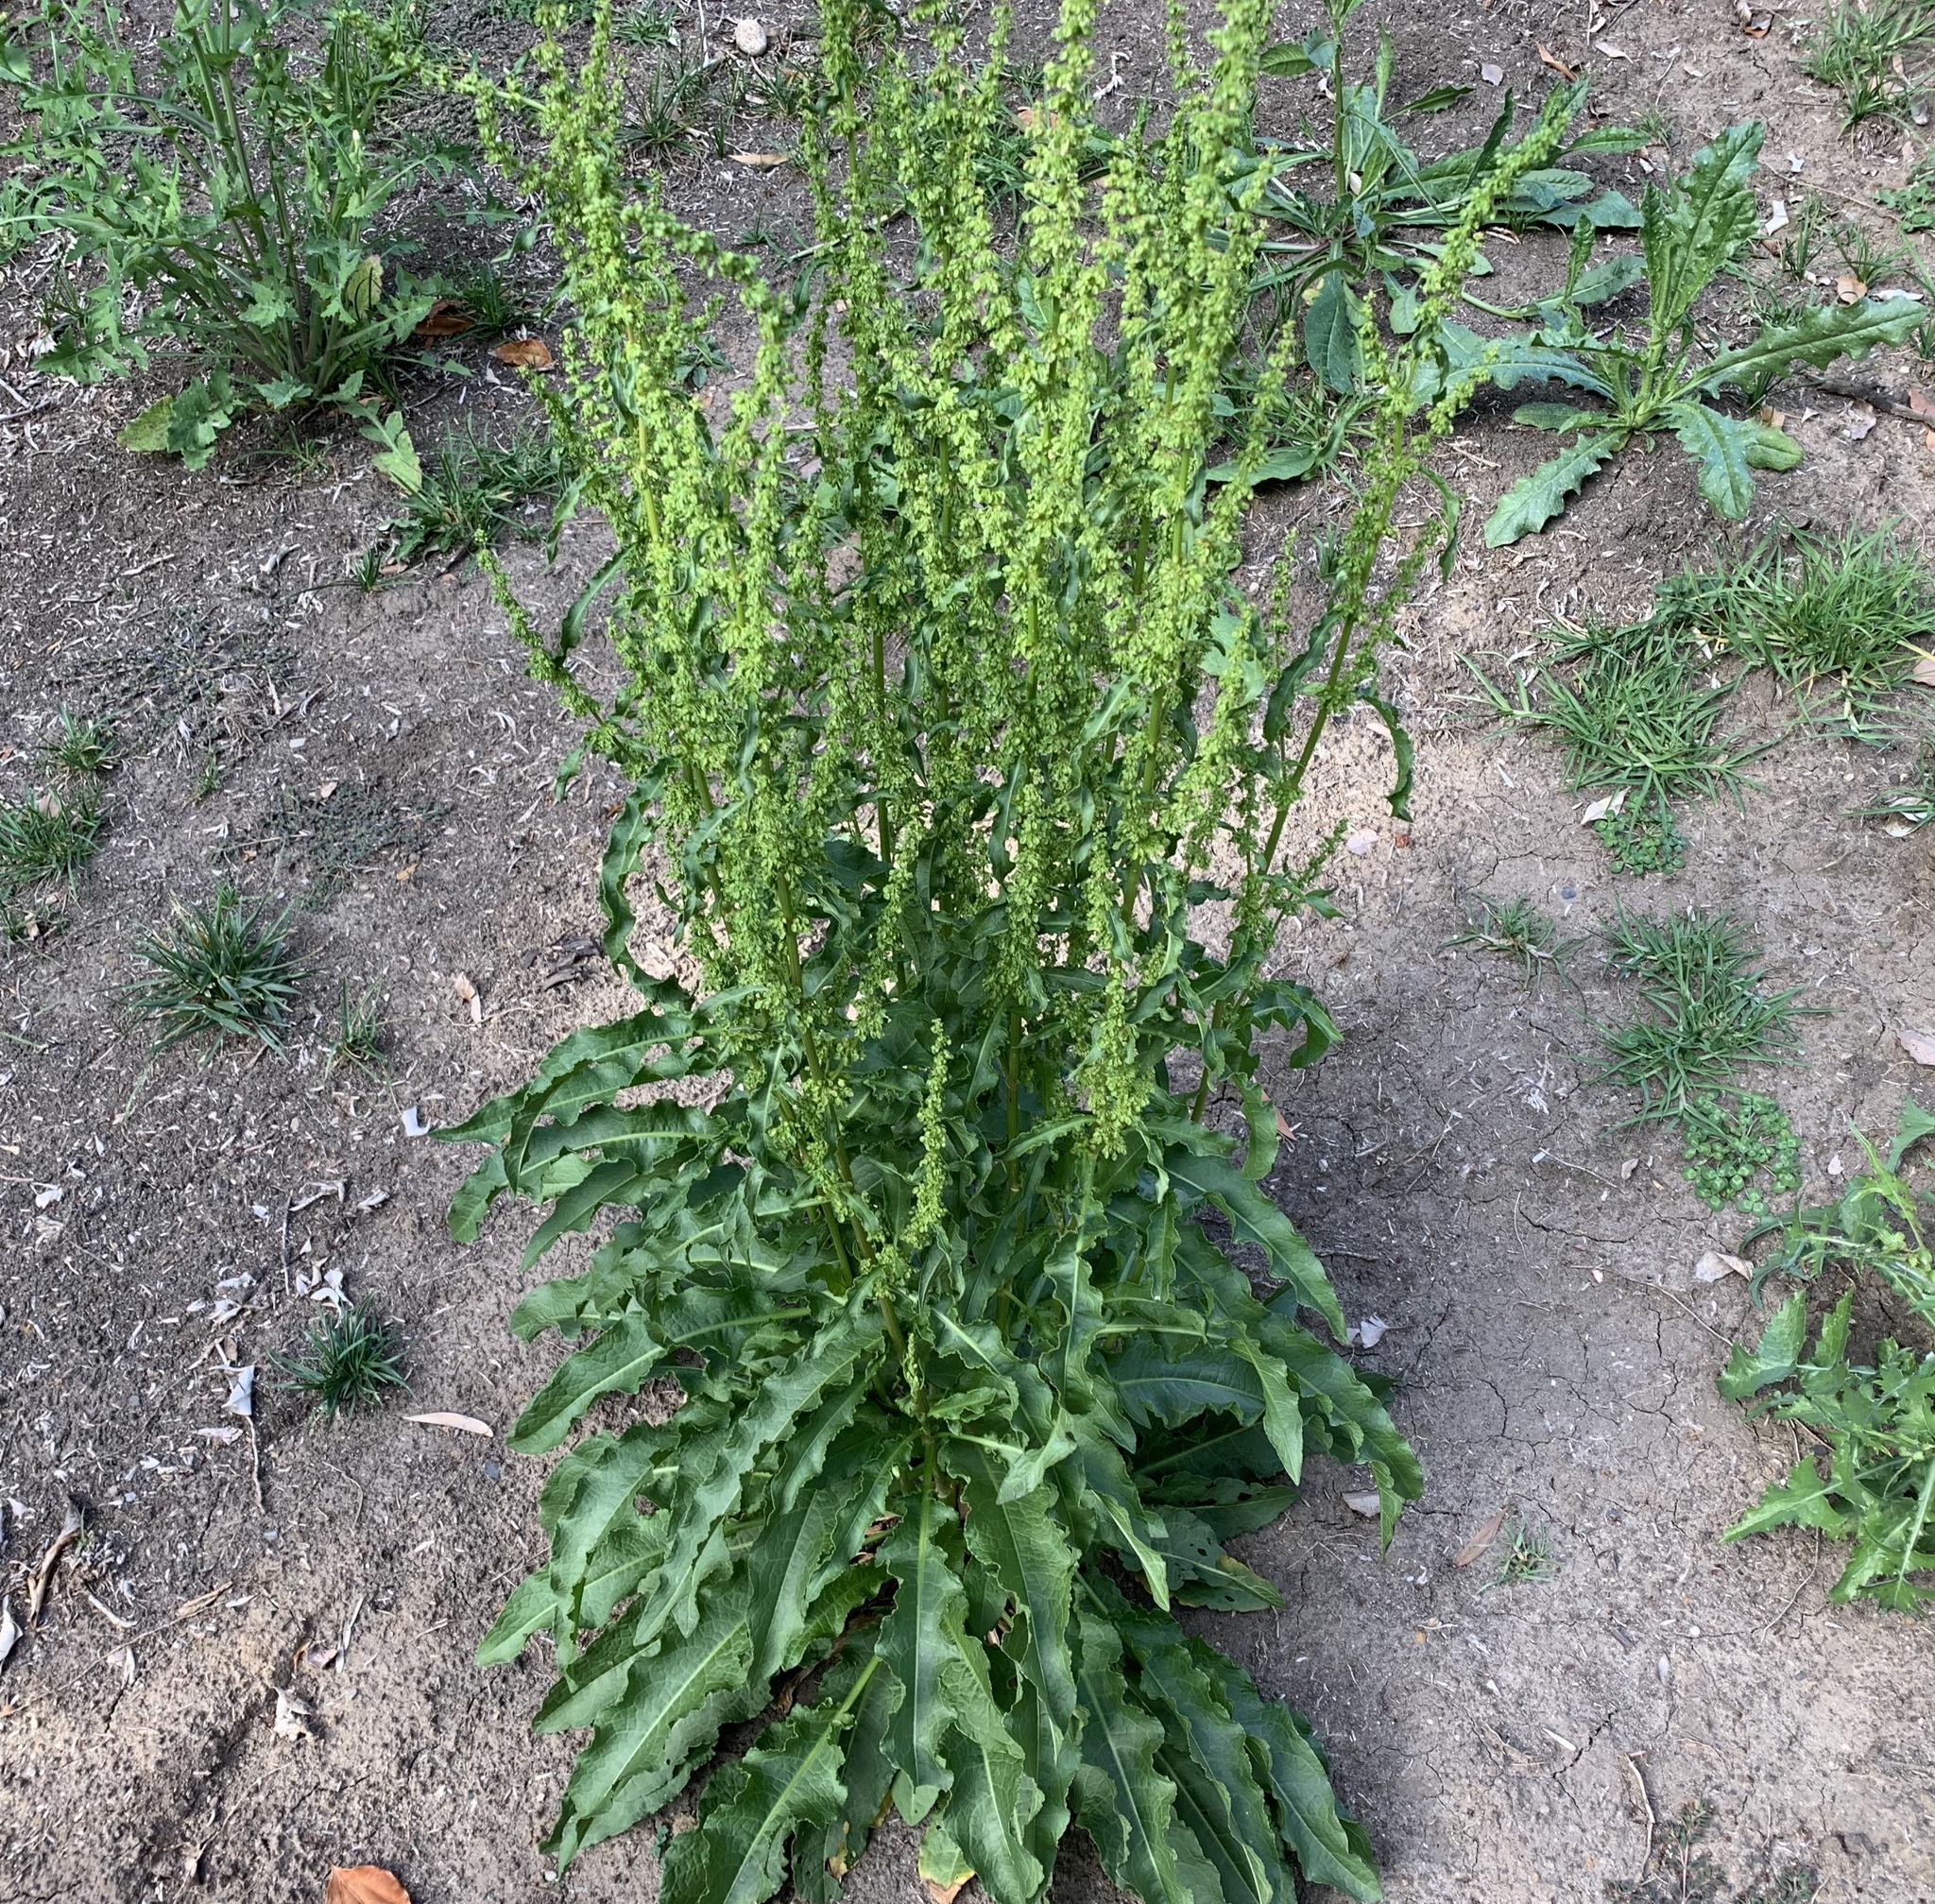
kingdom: Plantae
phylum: Tracheophyta
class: Magnoliopsida
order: Caryophyllales
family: Polygonaceae
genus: Rumex
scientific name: Rumex crispus
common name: Curled dock
